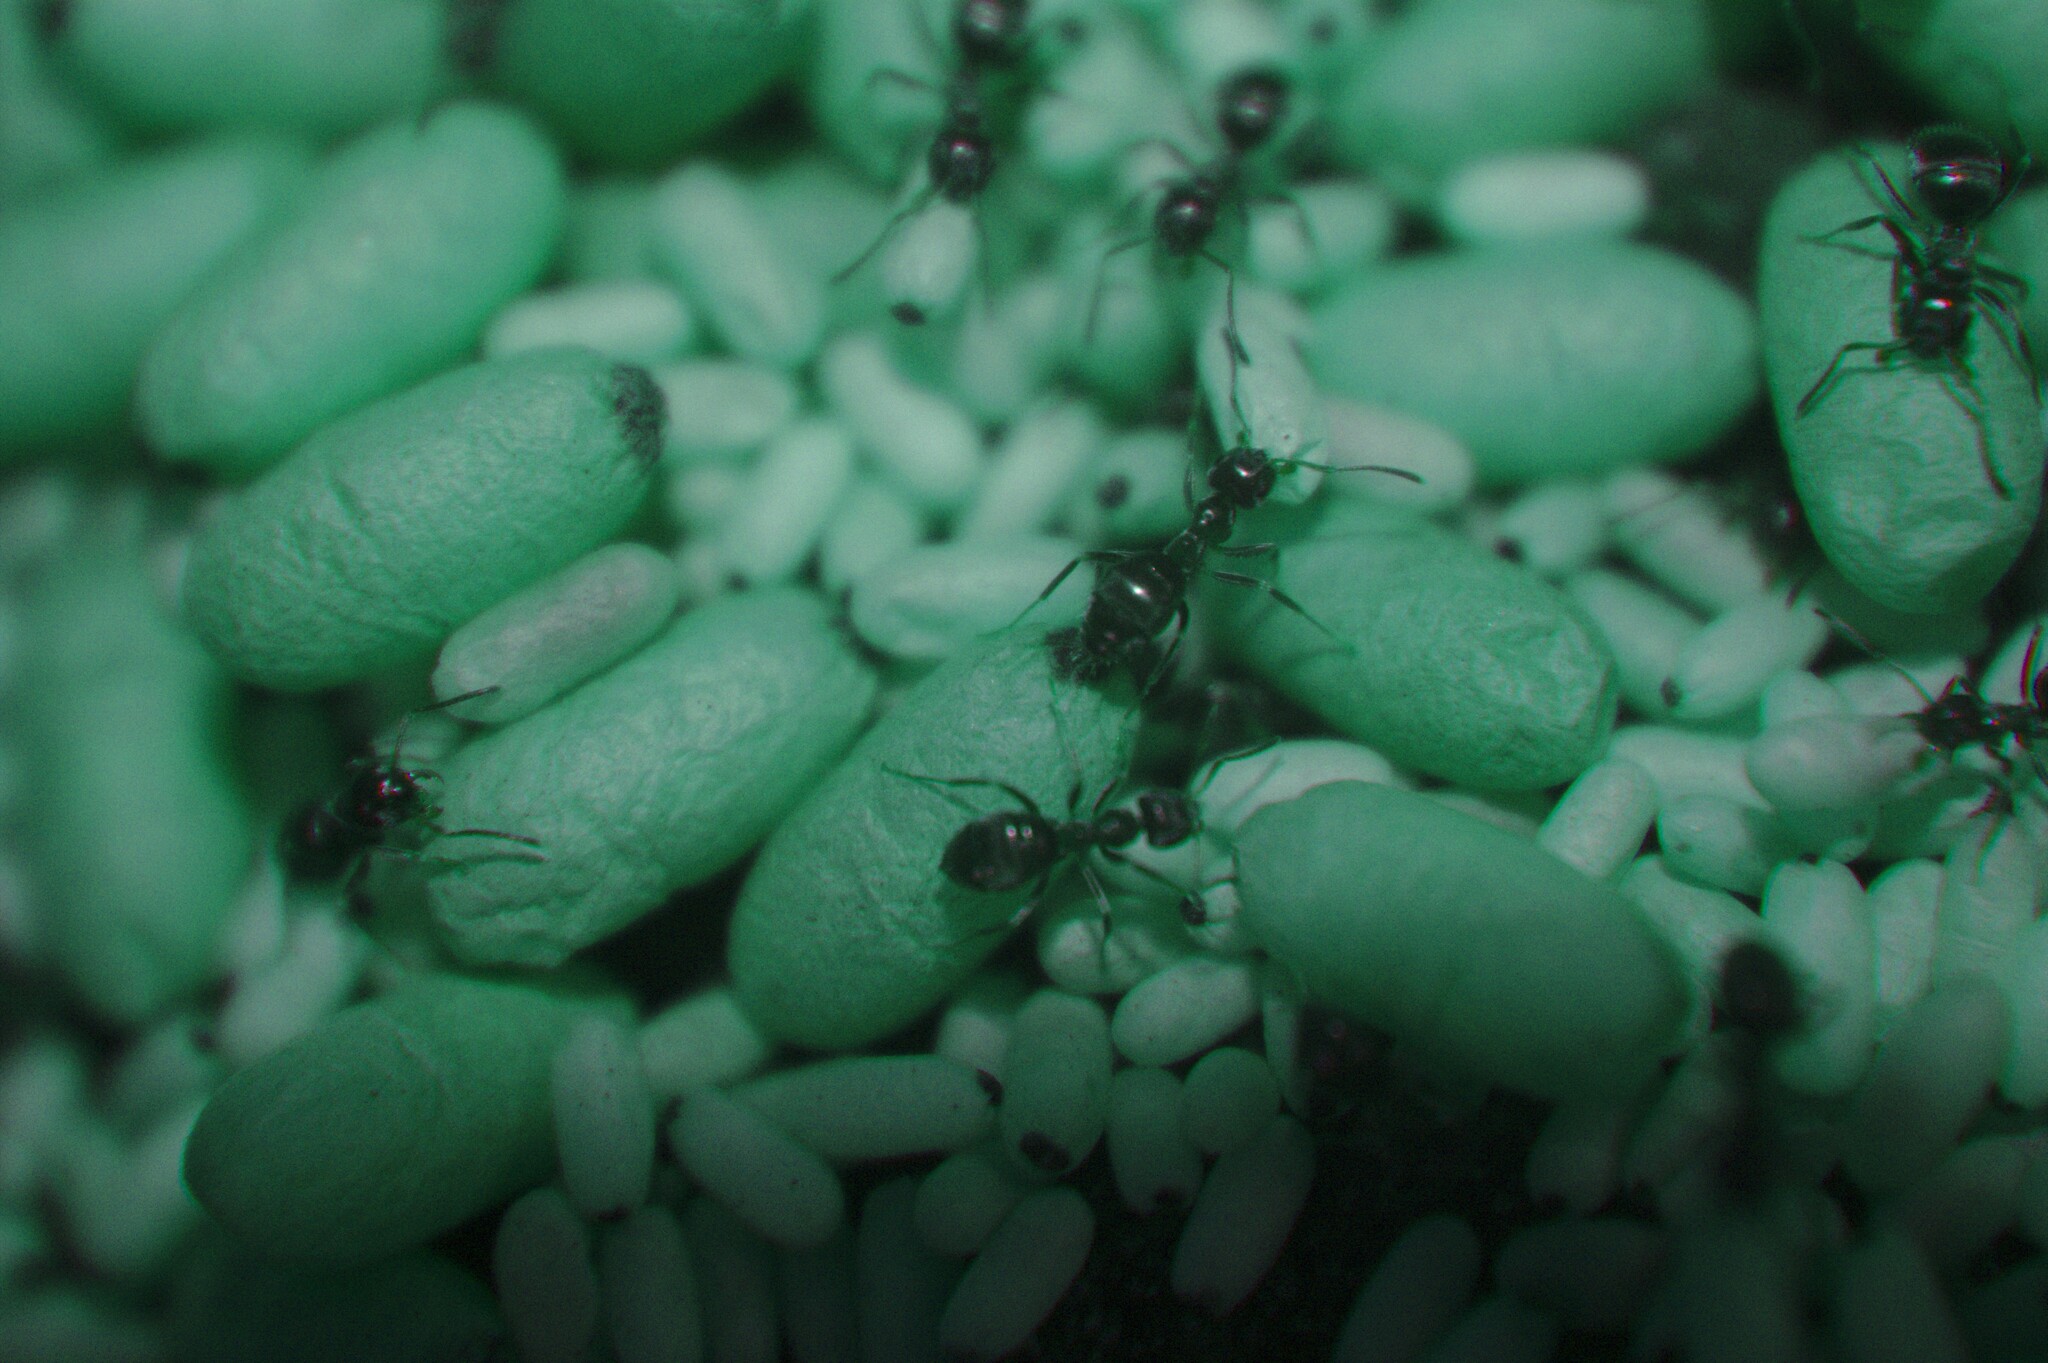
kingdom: Animalia
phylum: Arthropoda
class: Insecta
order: Hymenoptera
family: Formicidae
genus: Lasius
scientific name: Lasius americanus
